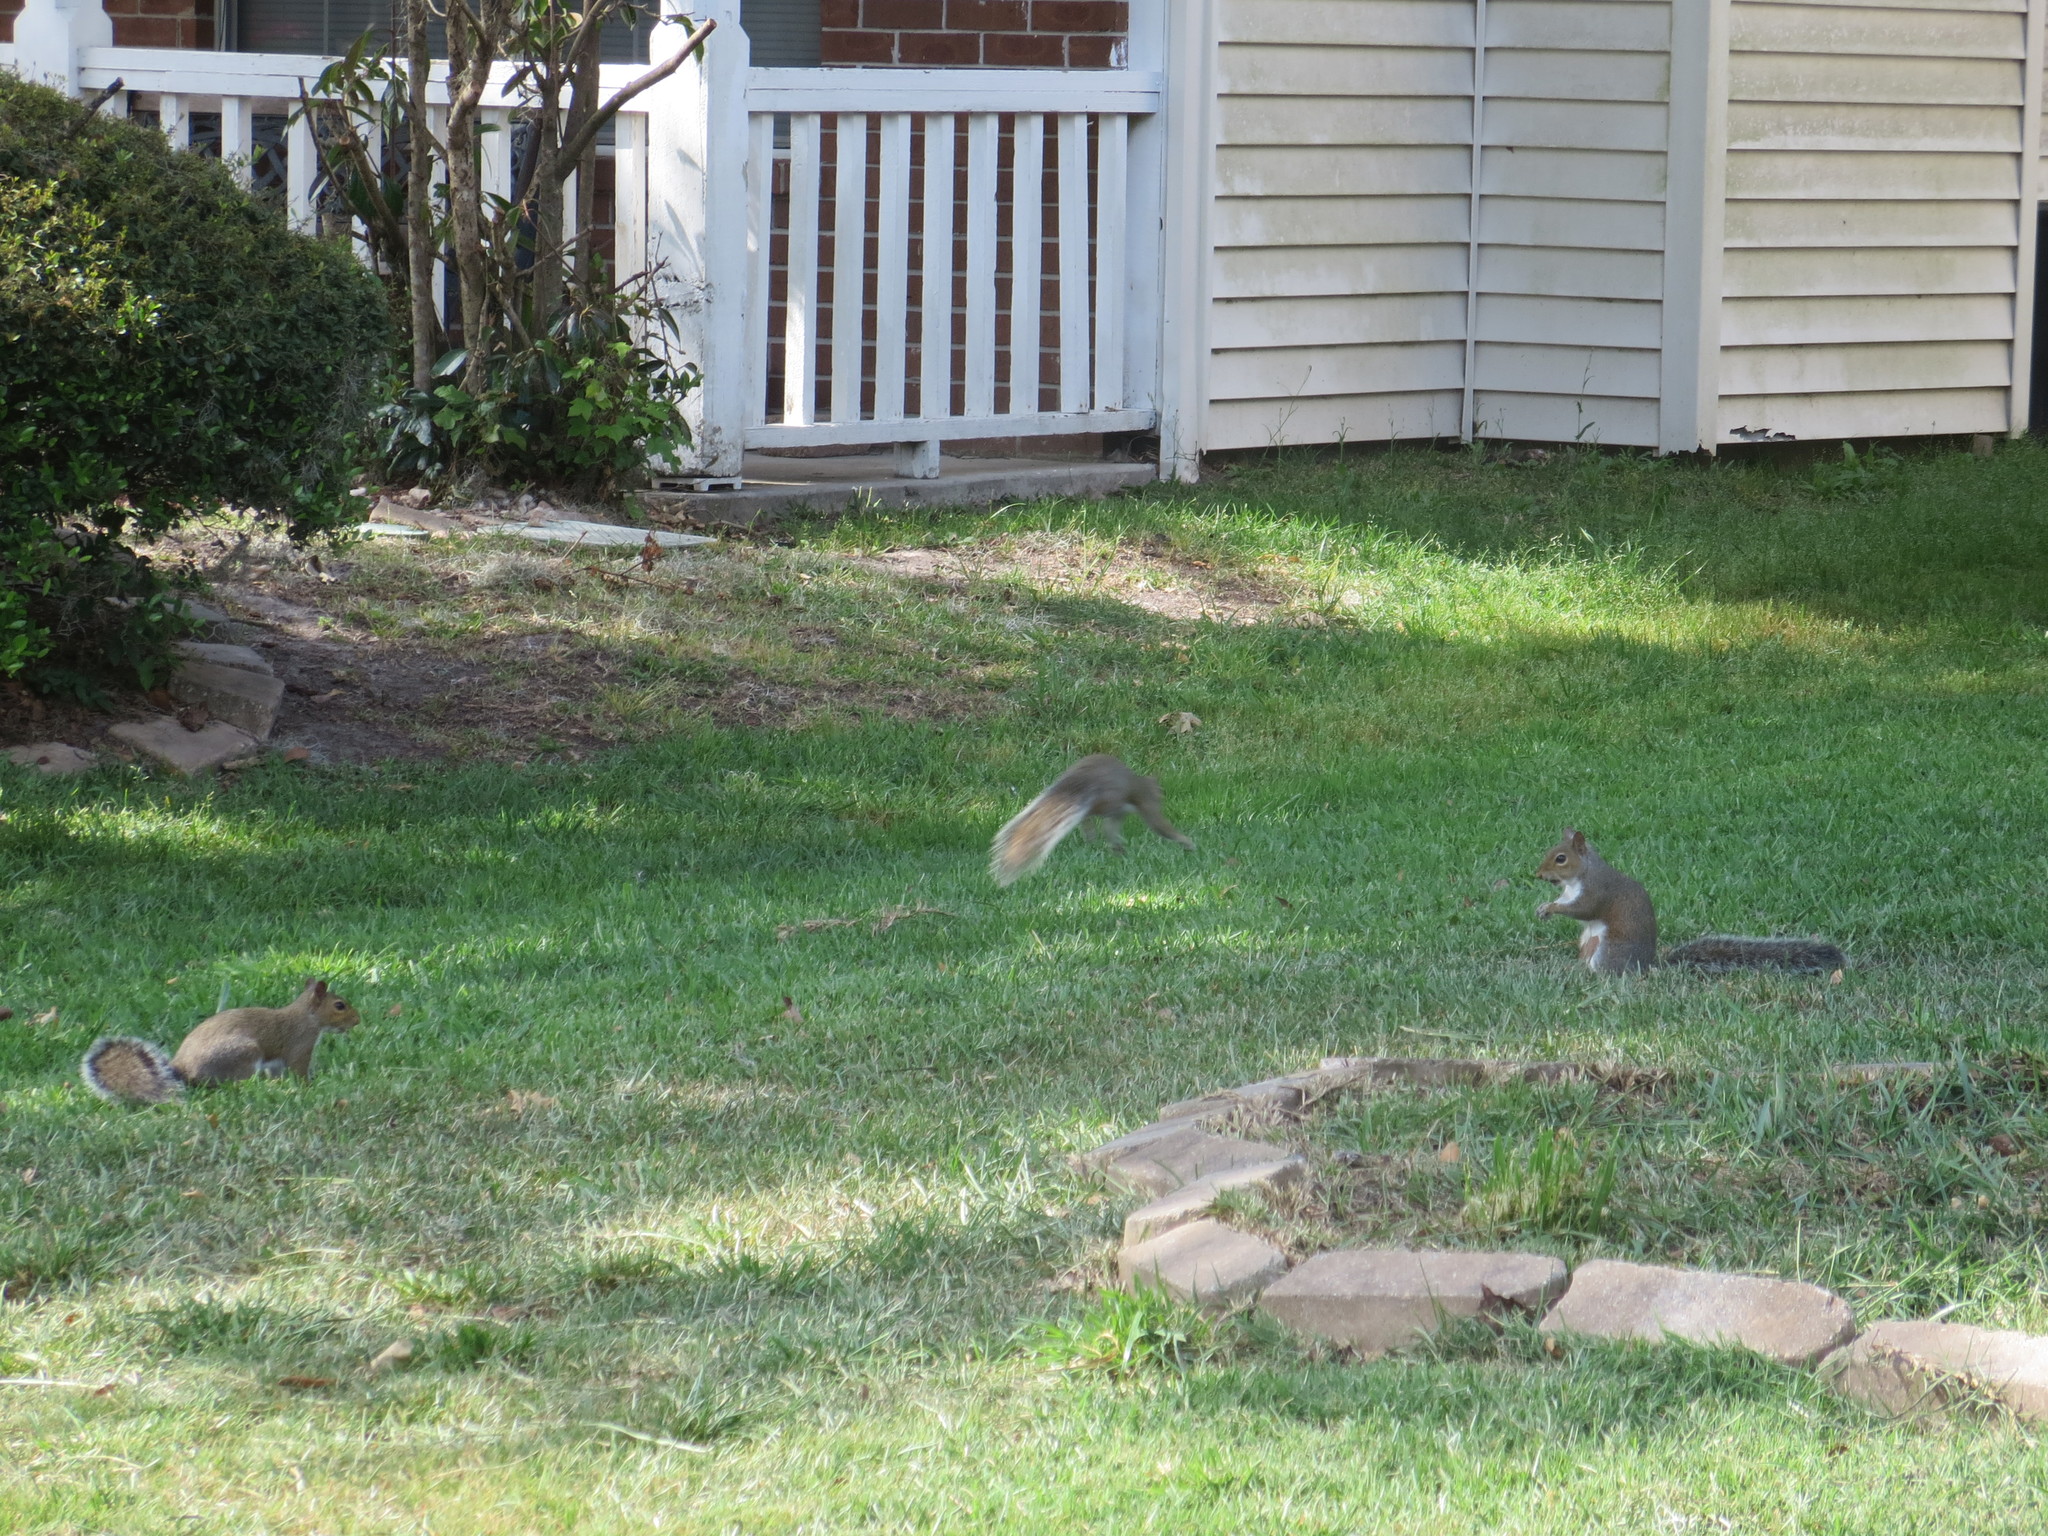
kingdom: Animalia
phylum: Chordata
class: Mammalia
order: Rodentia
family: Sciuridae
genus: Sciurus
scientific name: Sciurus carolinensis
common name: Eastern gray squirrel
